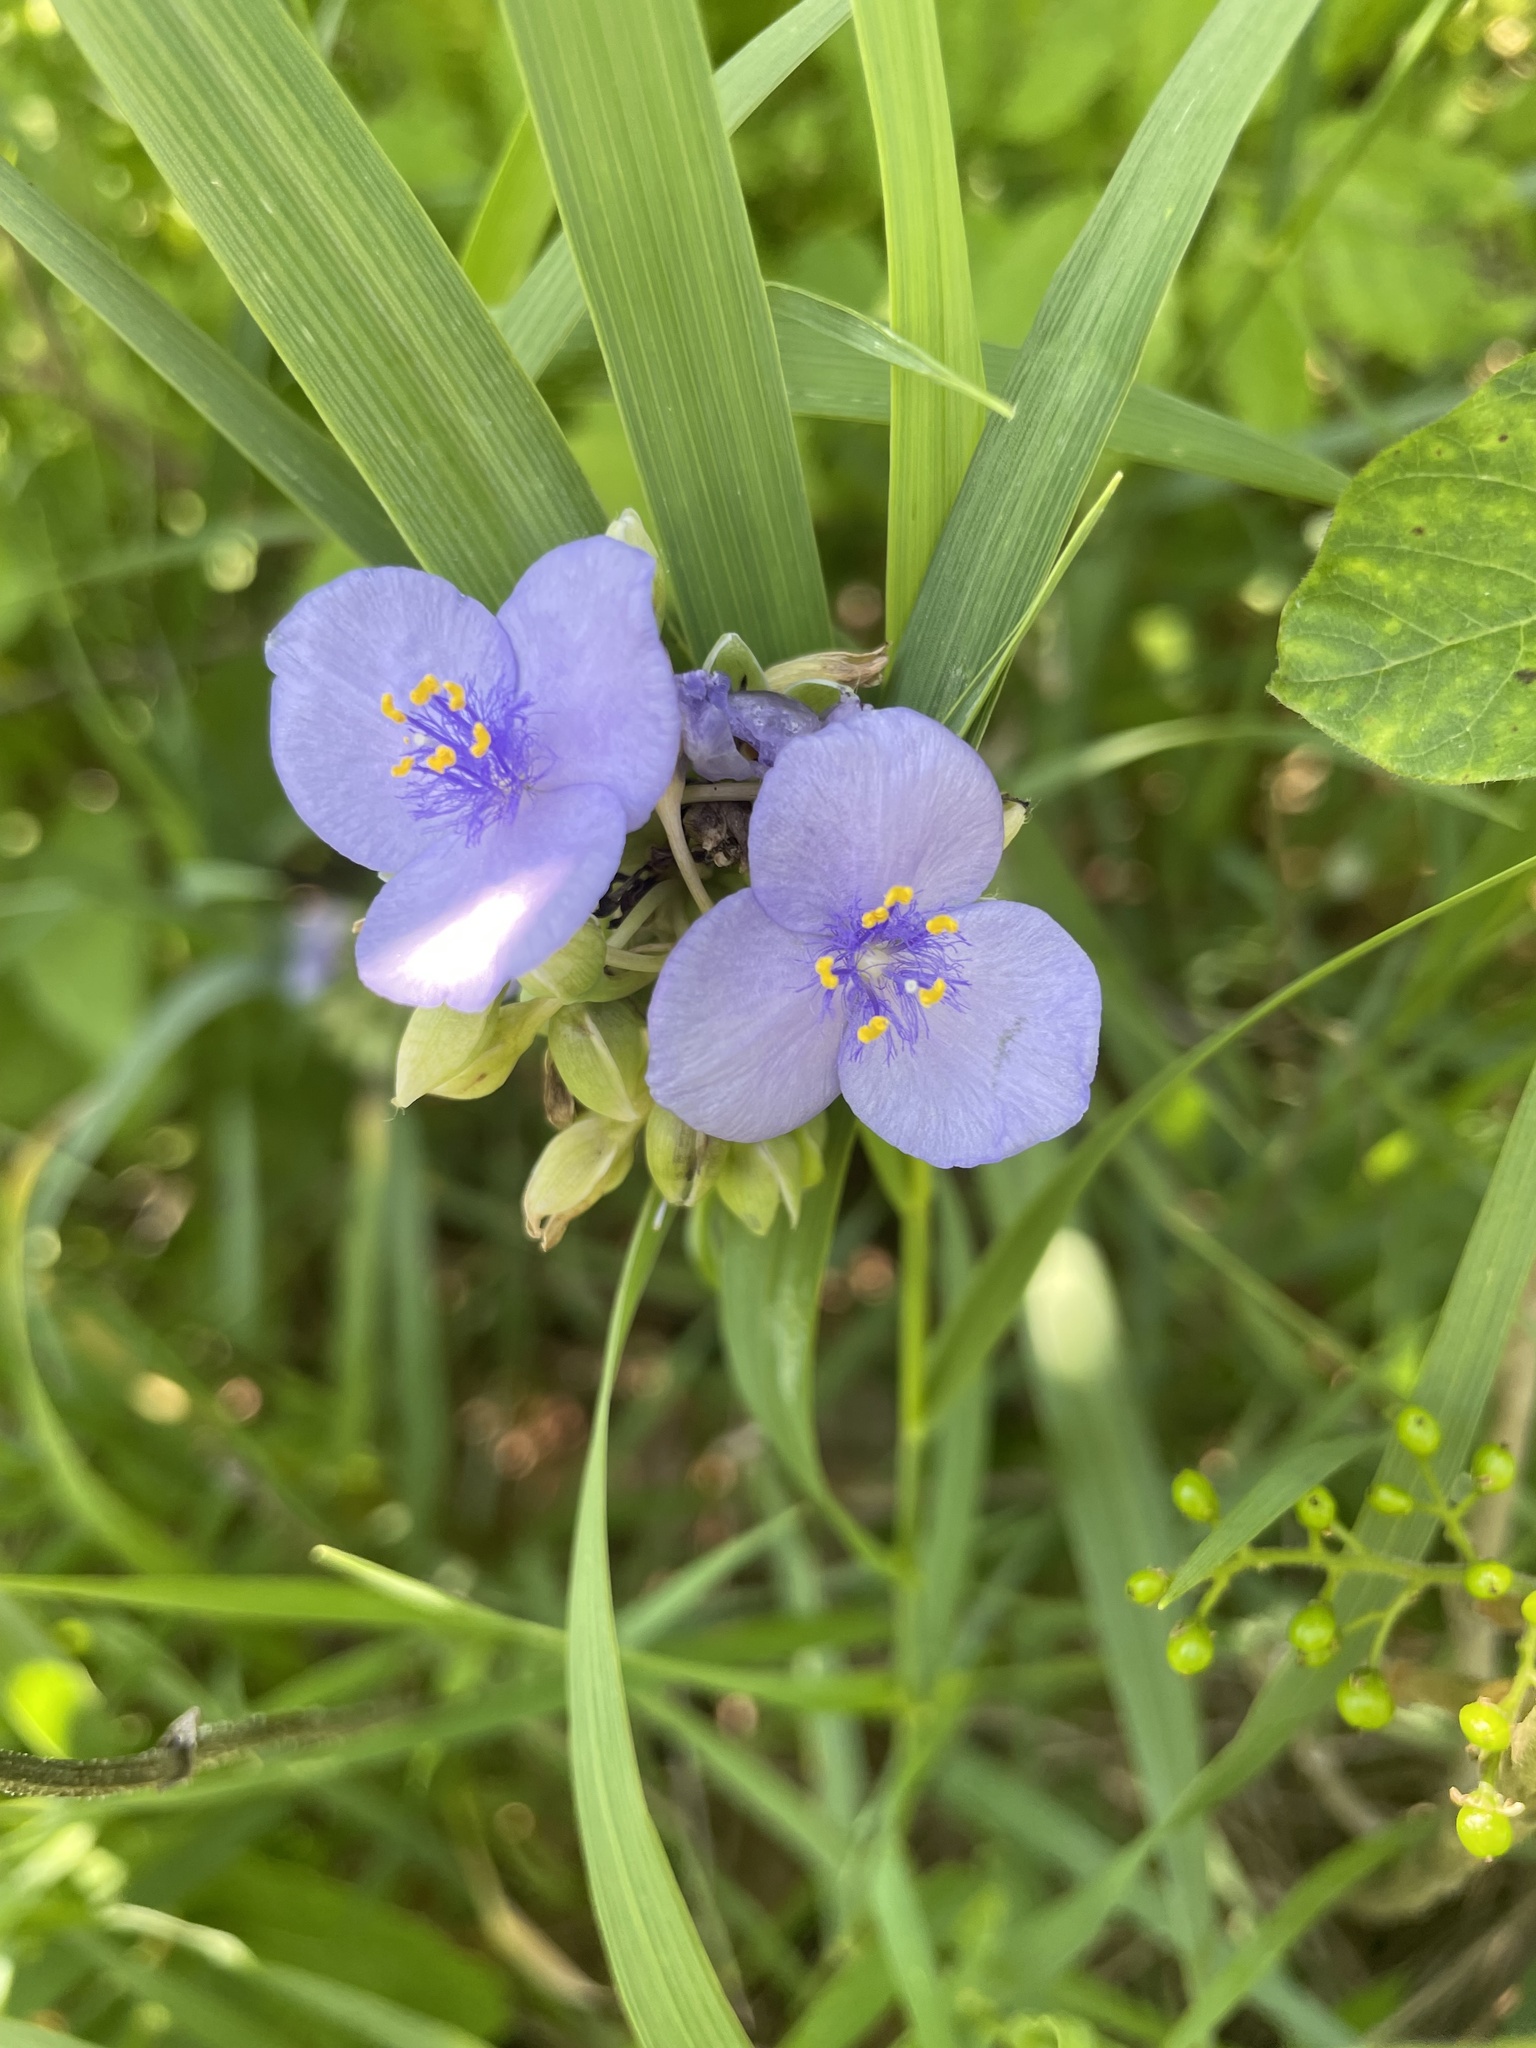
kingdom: Plantae
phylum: Tracheophyta
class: Liliopsida
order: Commelinales
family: Commelinaceae
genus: Tradescantia
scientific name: Tradescantia ohiensis
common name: Ohio spiderwort
